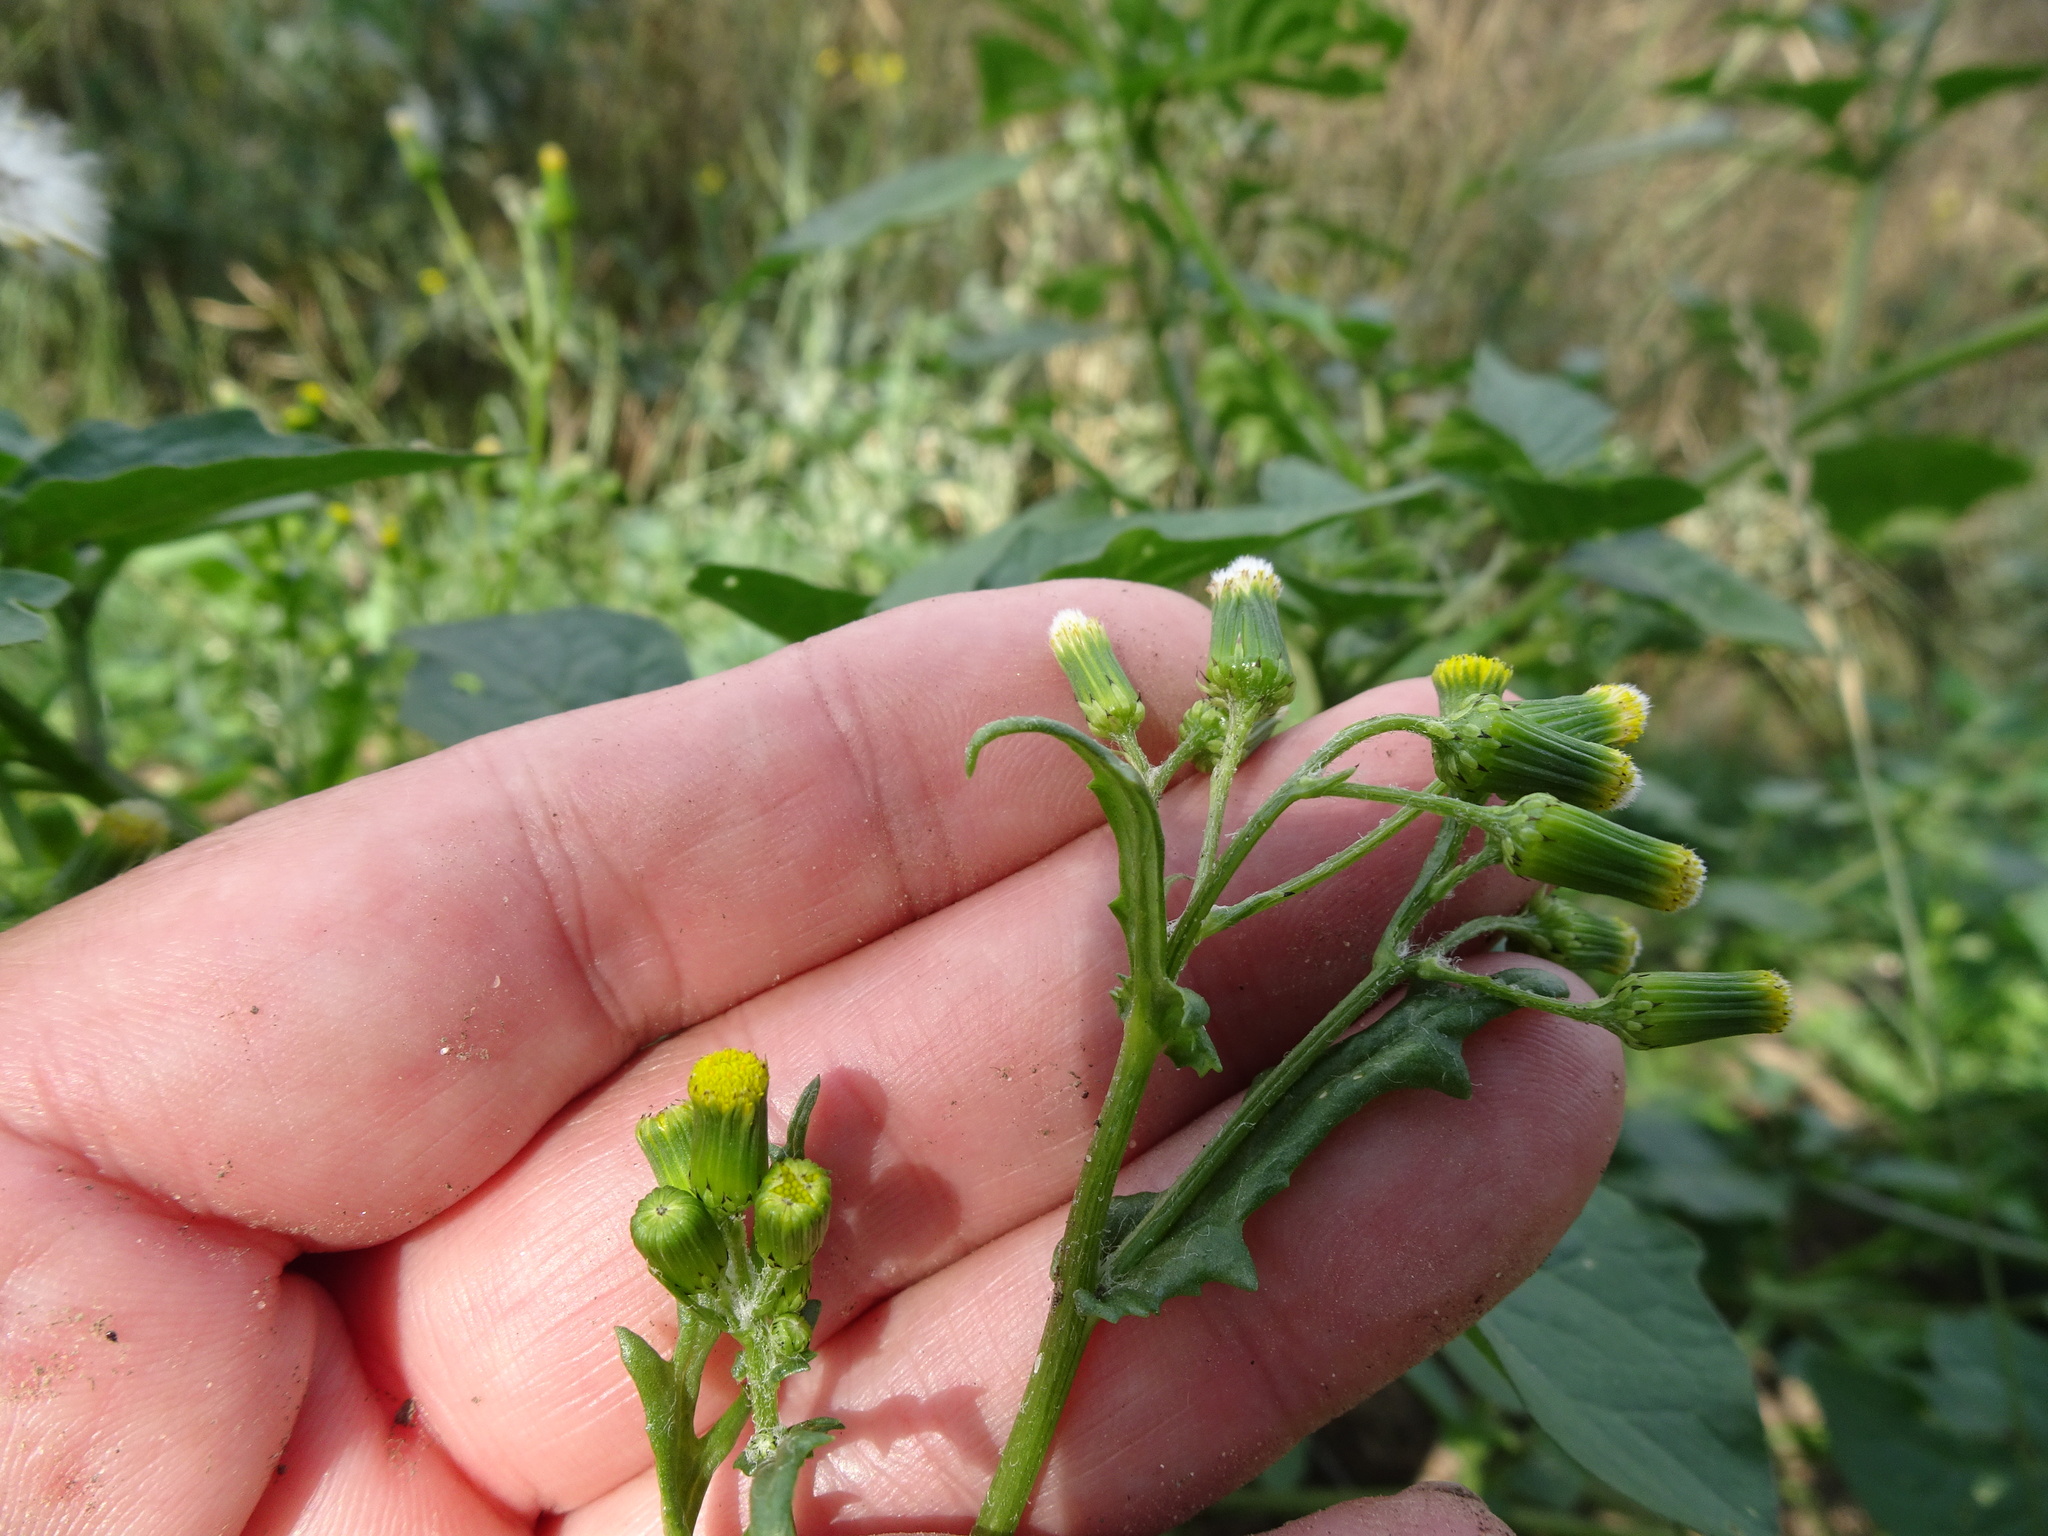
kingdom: Plantae
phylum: Tracheophyta
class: Magnoliopsida
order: Asterales
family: Asteraceae
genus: Senecio
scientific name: Senecio vulgaris
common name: Old-man-in-the-spring
